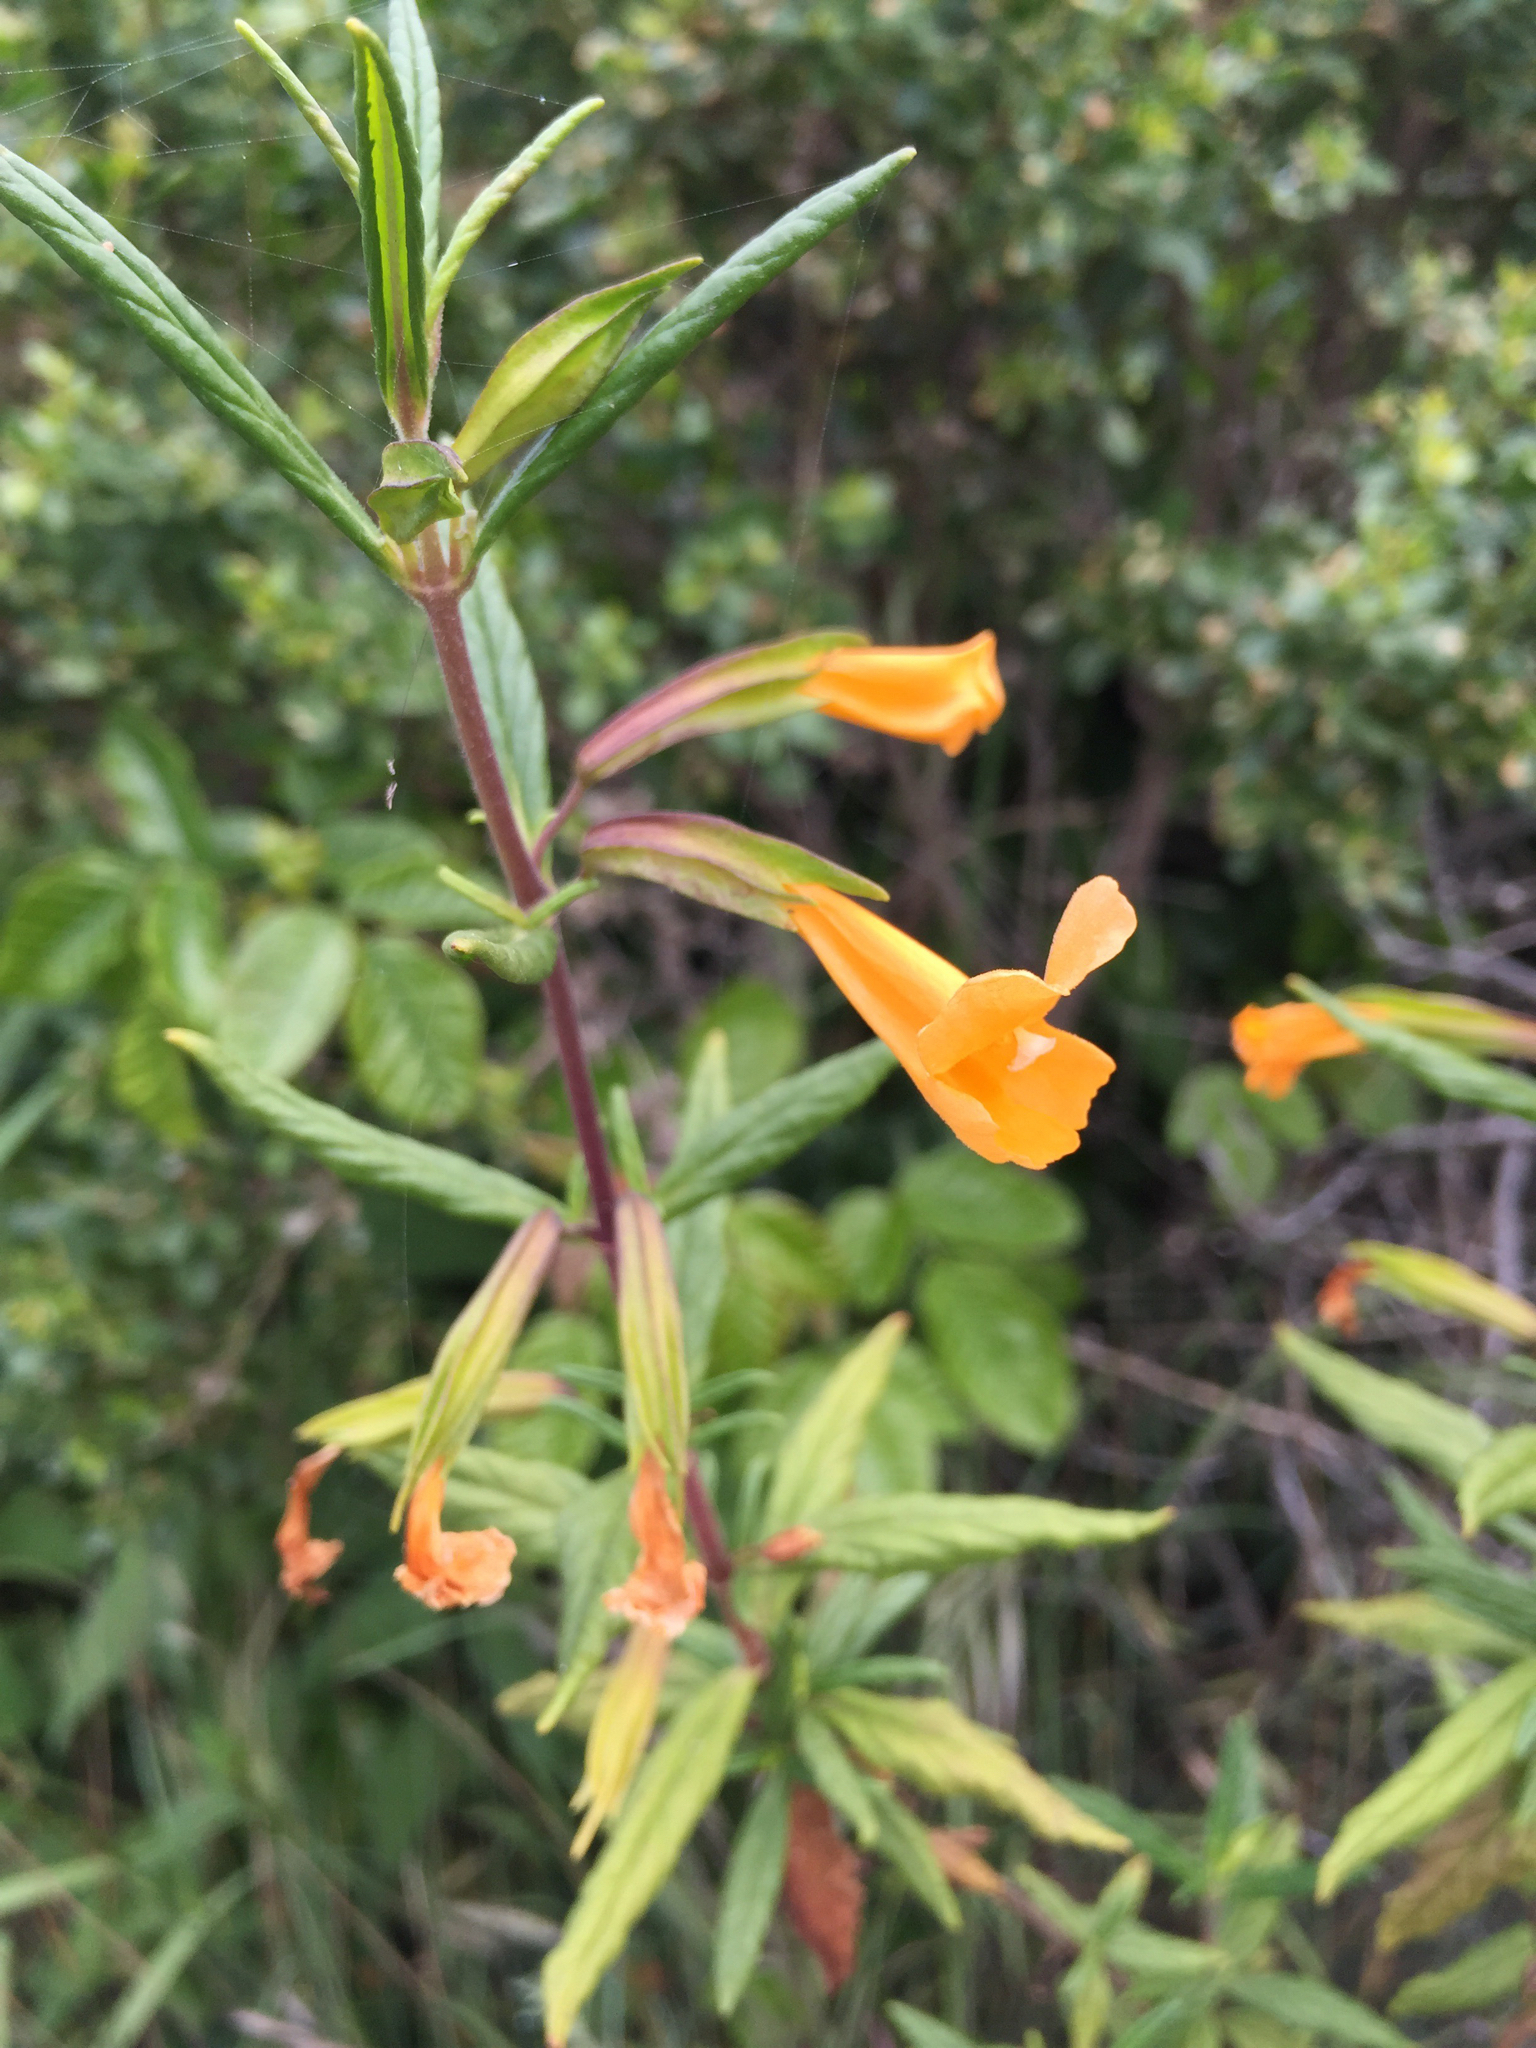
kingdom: Plantae
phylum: Tracheophyta
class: Magnoliopsida
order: Lamiales
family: Phrymaceae
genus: Diplacus
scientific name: Diplacus aurantiacus
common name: Bush monkey-flower
